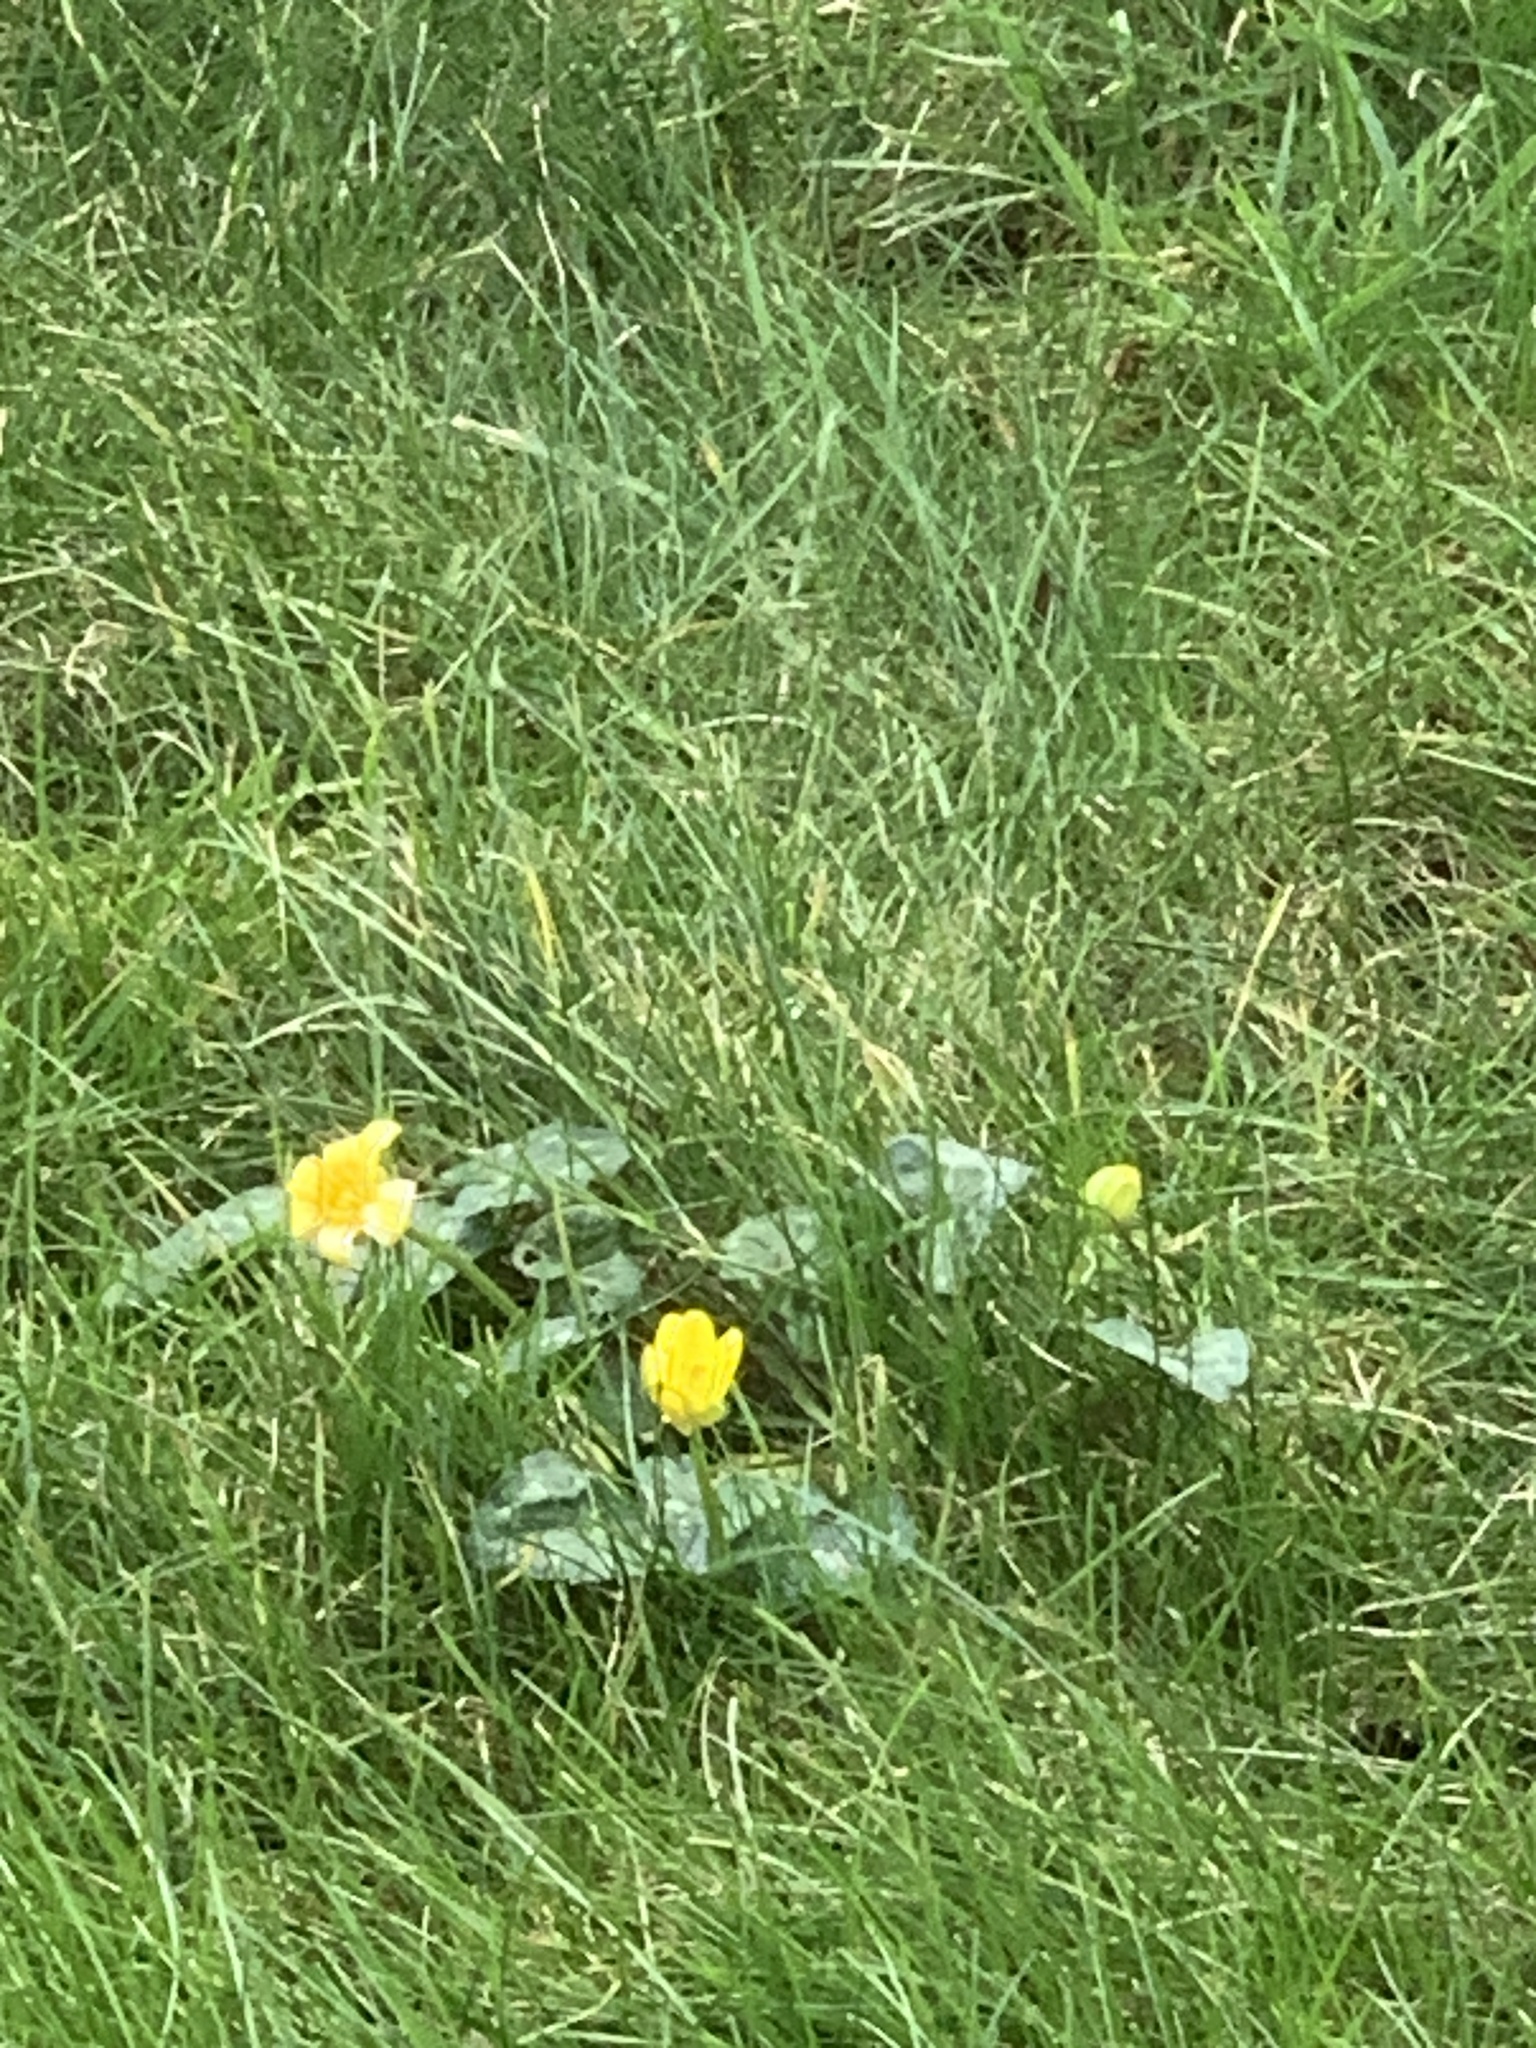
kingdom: Plantae
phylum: Tracheophyta
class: Magnoliopsida
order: Ranunculales
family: Ranunculaceae
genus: Ficaria
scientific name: Ficaria verna
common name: Lesser celandine
